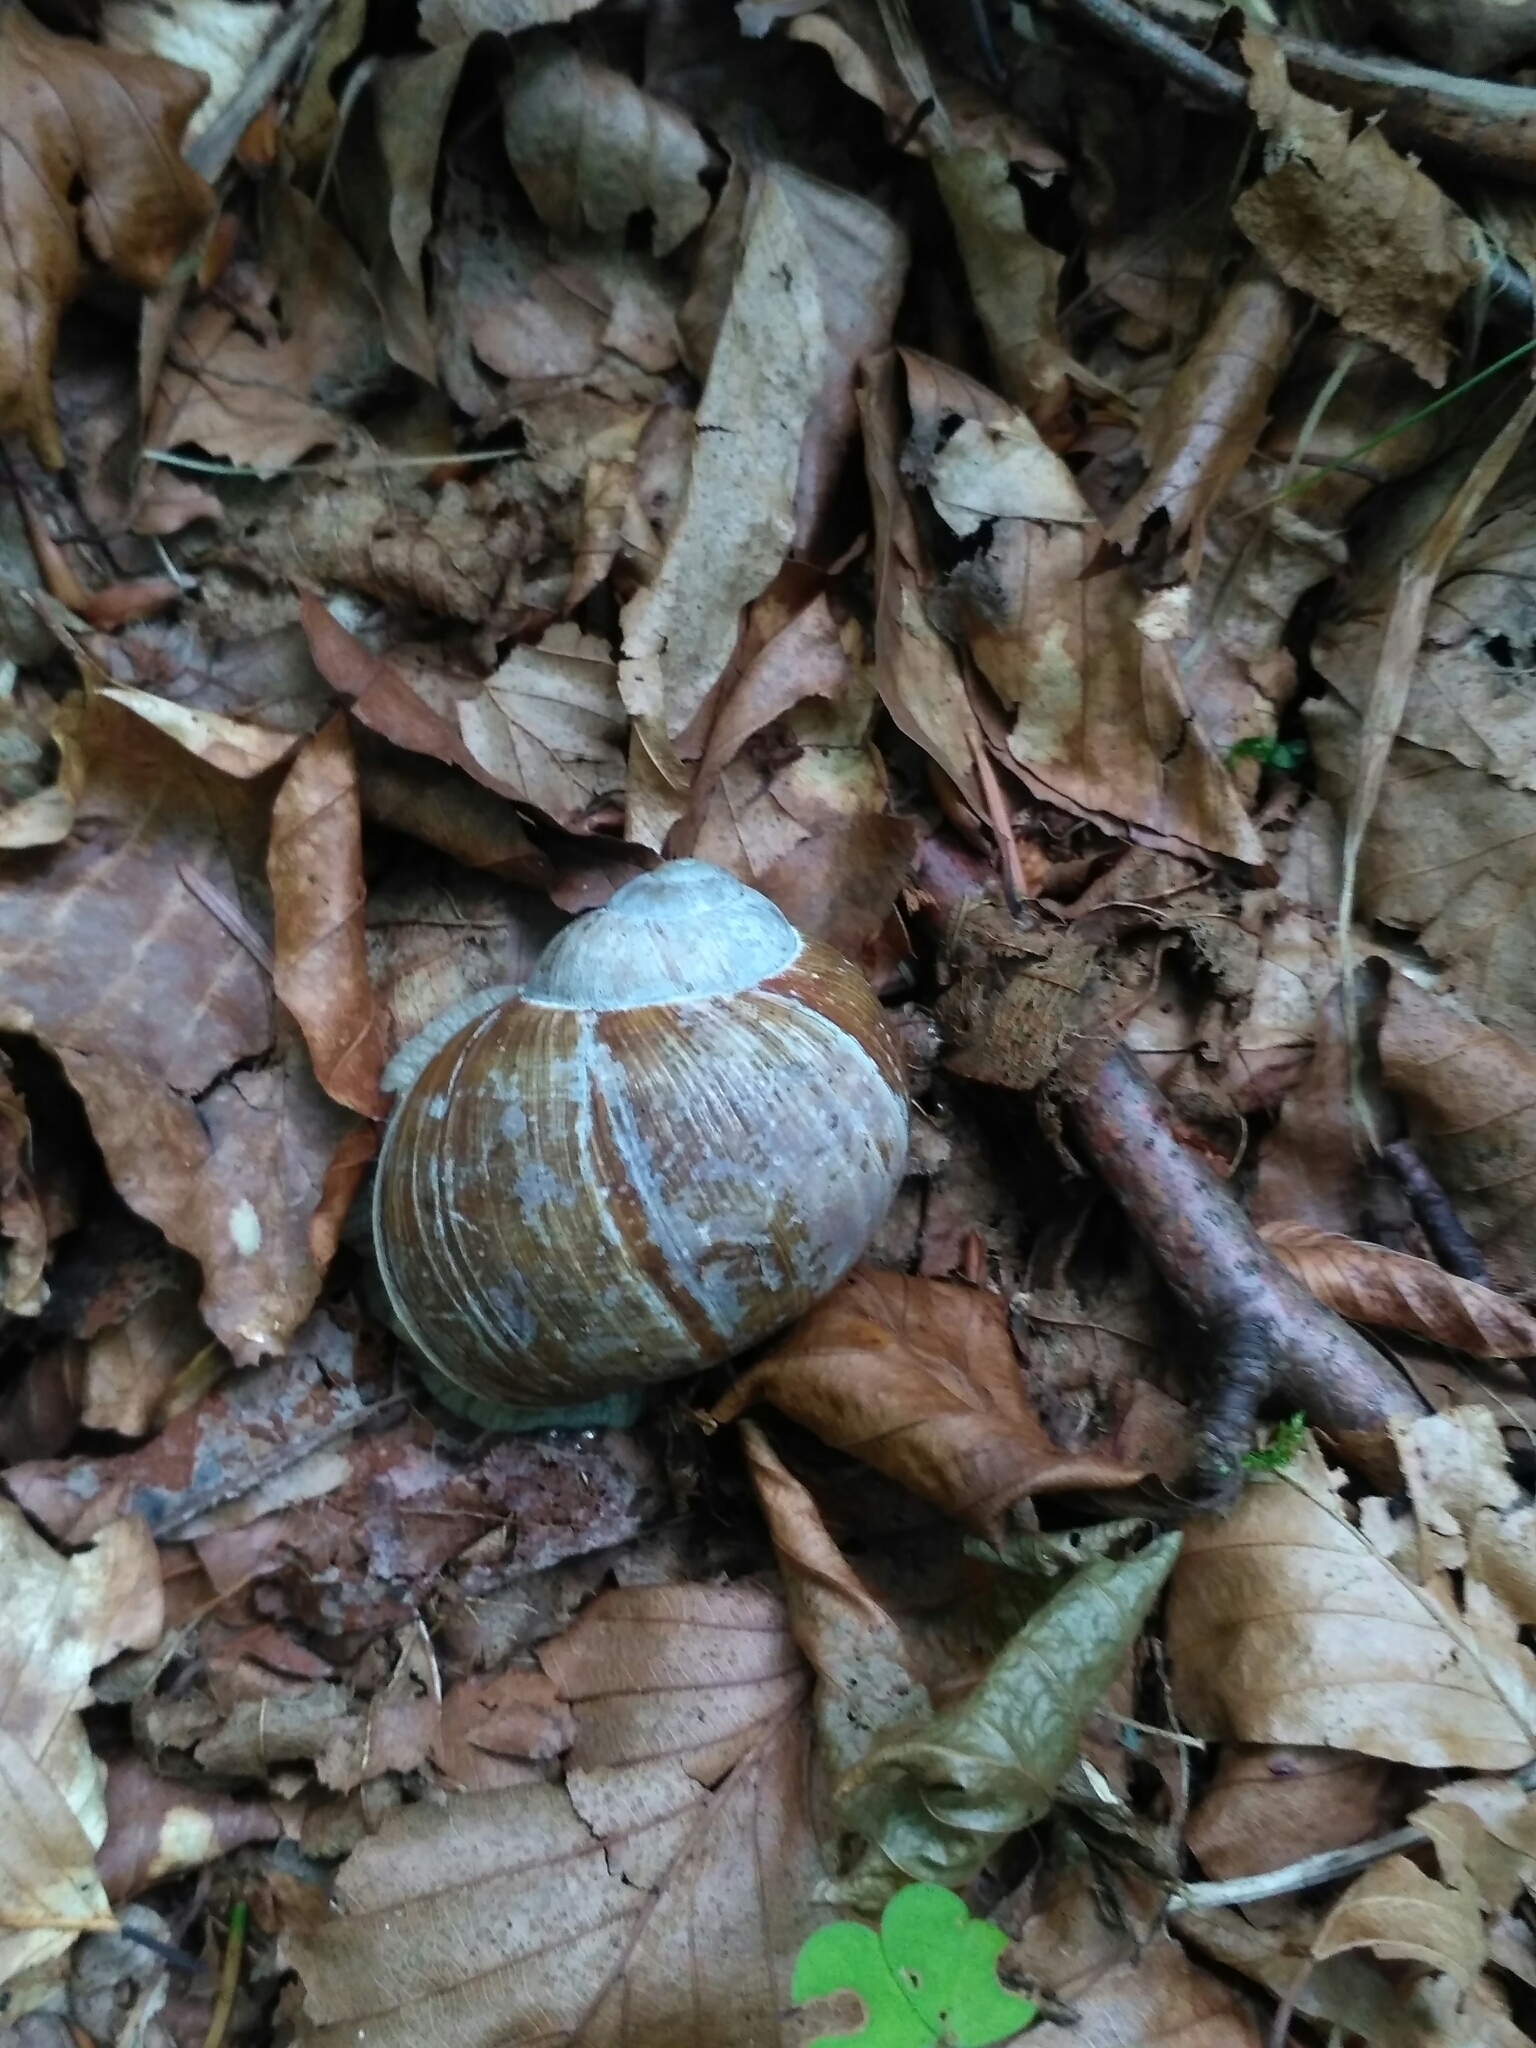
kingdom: Animalia
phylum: Mollusca
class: Gastropoda
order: Stylommatophora
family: Helicidae
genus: Helix
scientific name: Helix pomatia
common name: Roman snail
